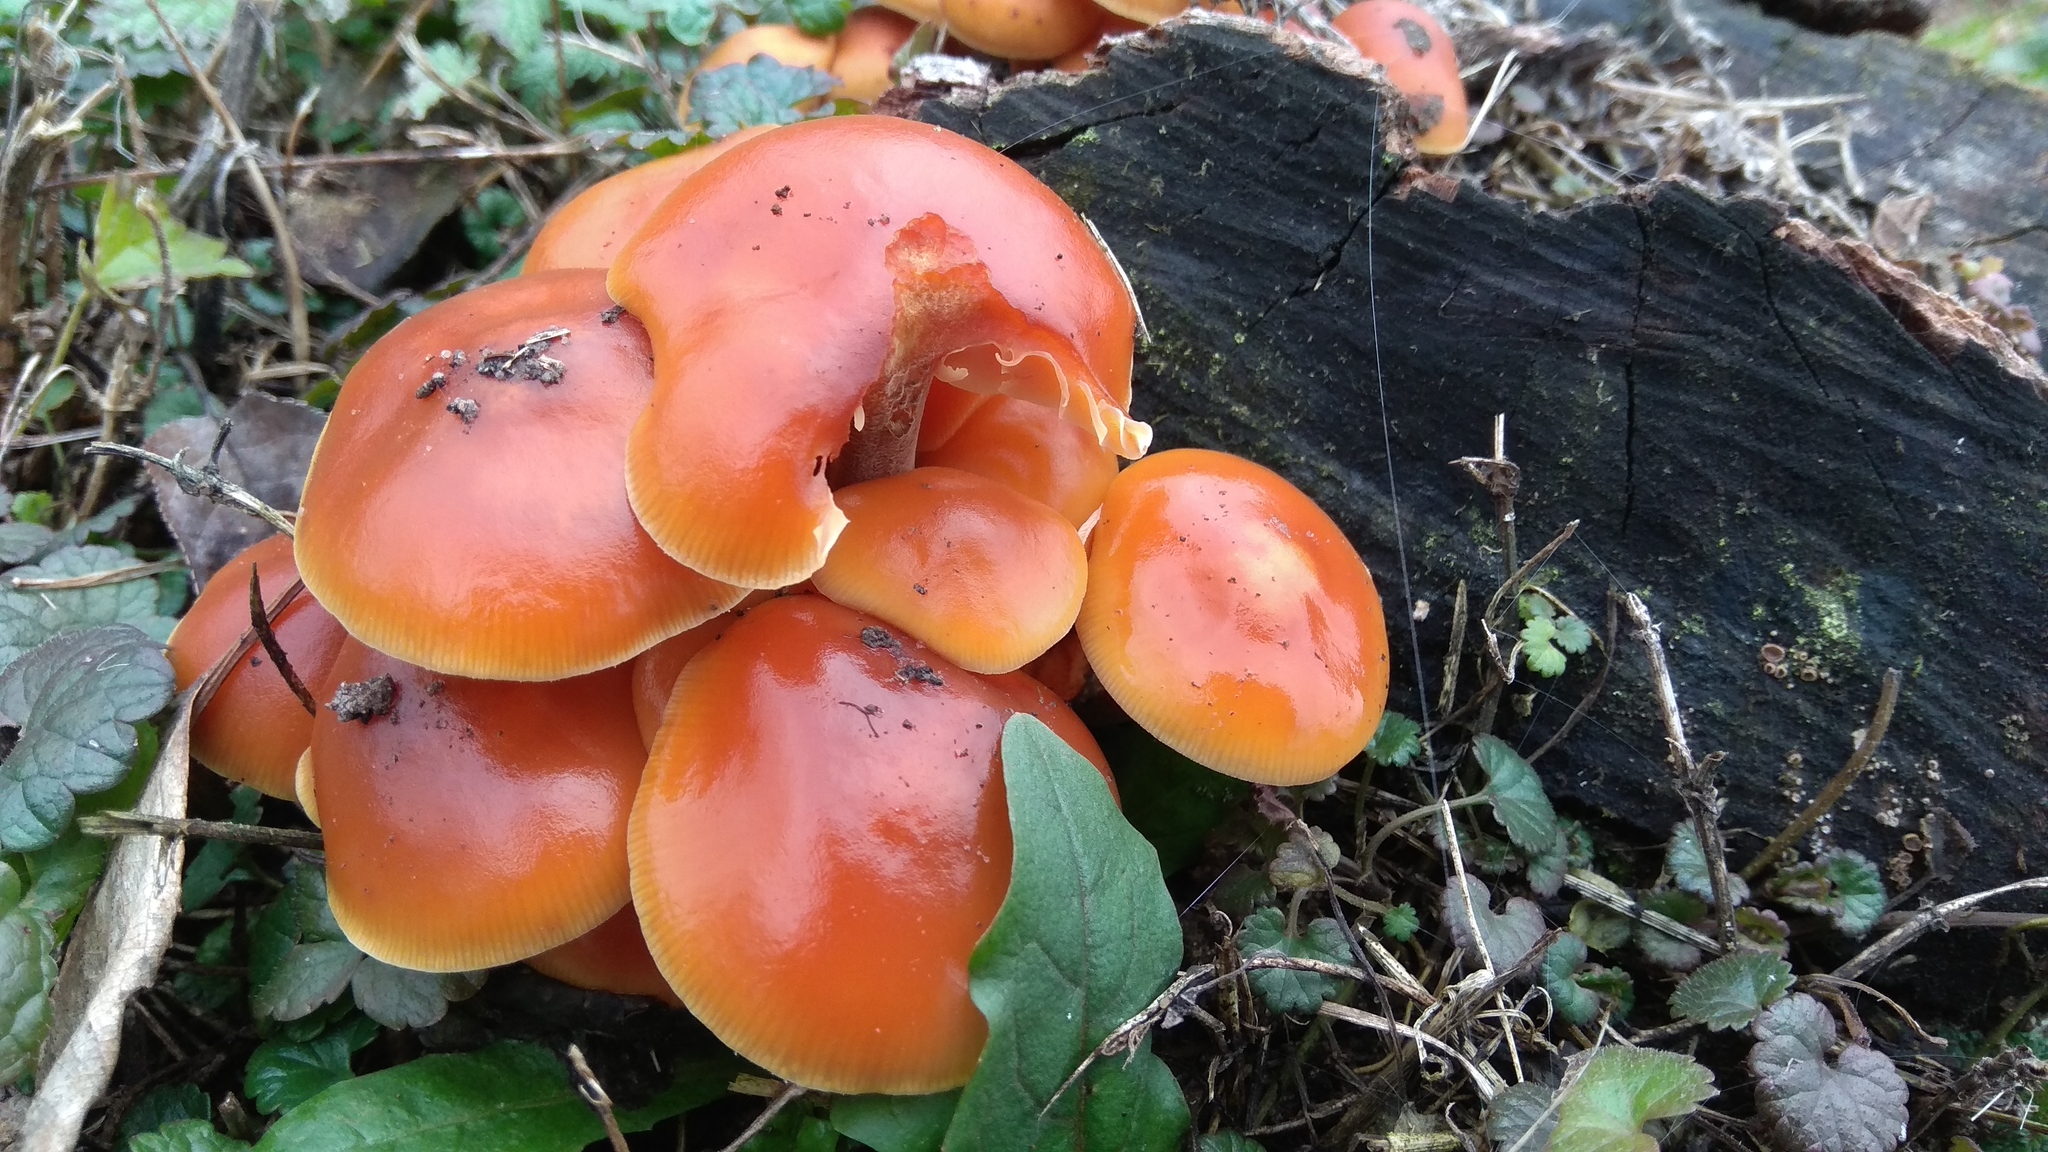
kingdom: Fungi
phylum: Basidiomycota
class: Agaricomycetes
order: Agaricales
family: Physalacriaceae
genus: Flammulina
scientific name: Flammulina
